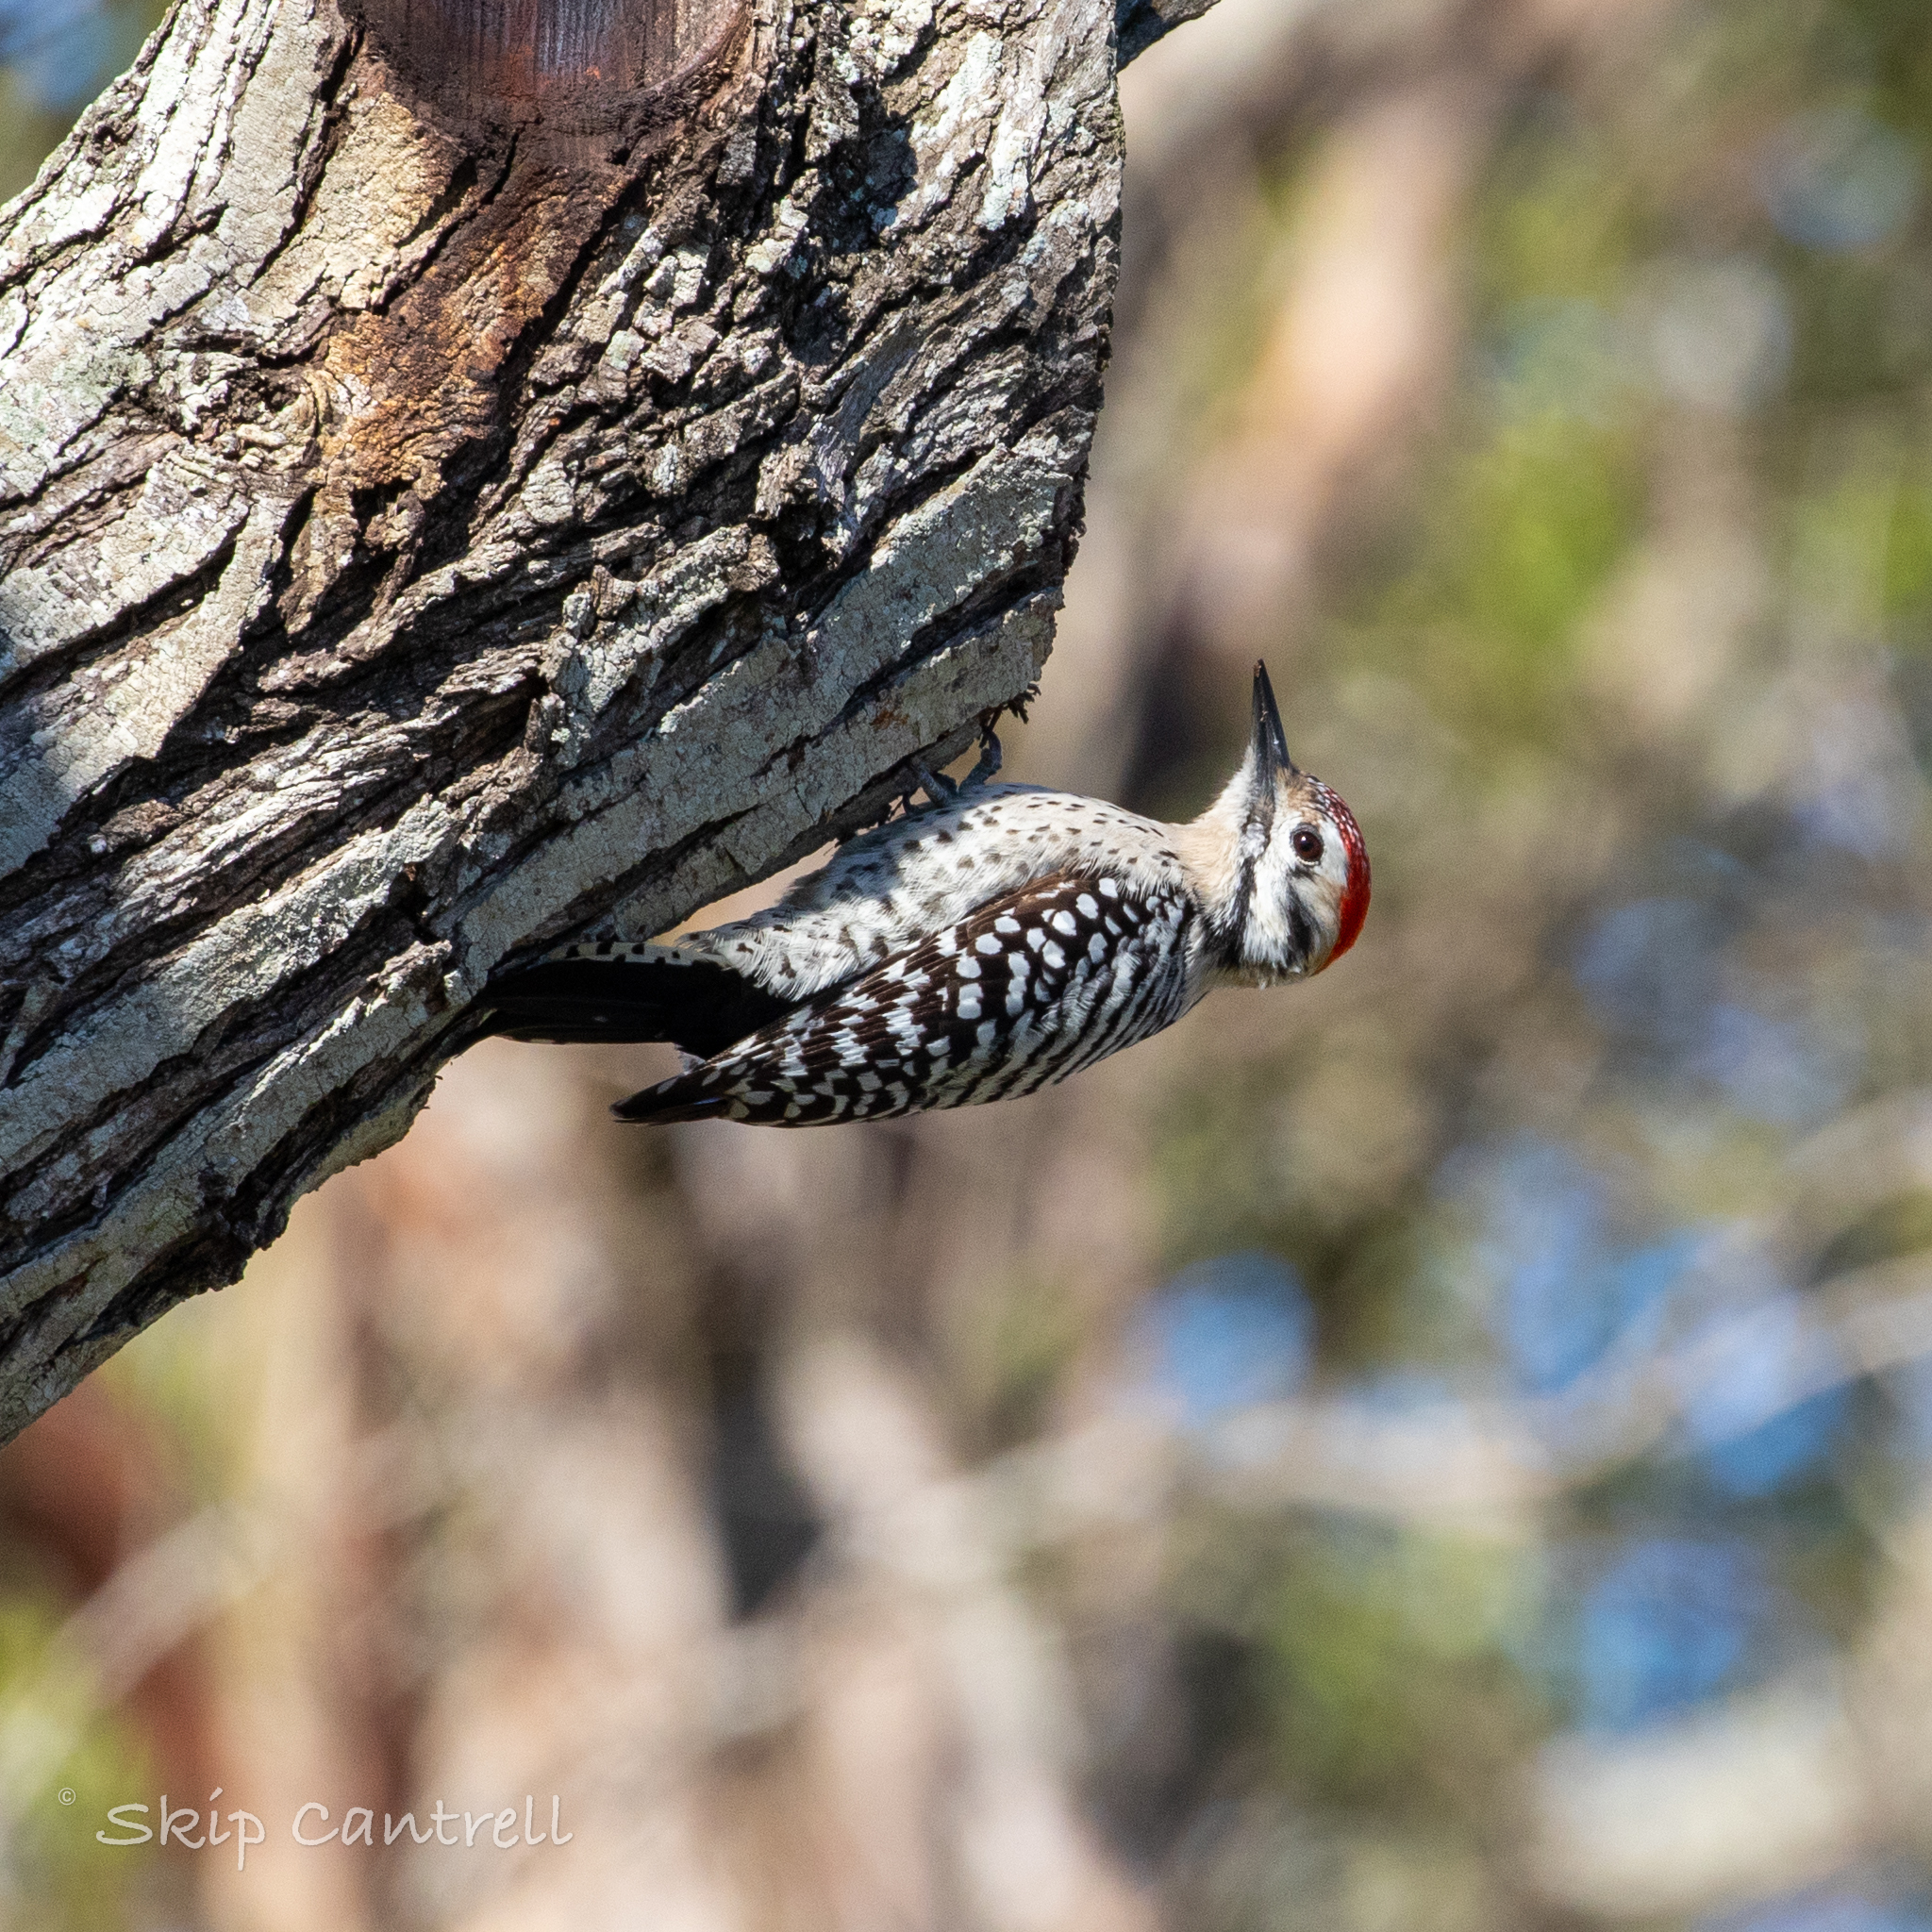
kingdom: Animalia
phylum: Chordata
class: Aves
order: Piciformes
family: Picidae
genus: Dryobates
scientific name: Dryobates scalaris
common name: Ladder-backed woodpecker
